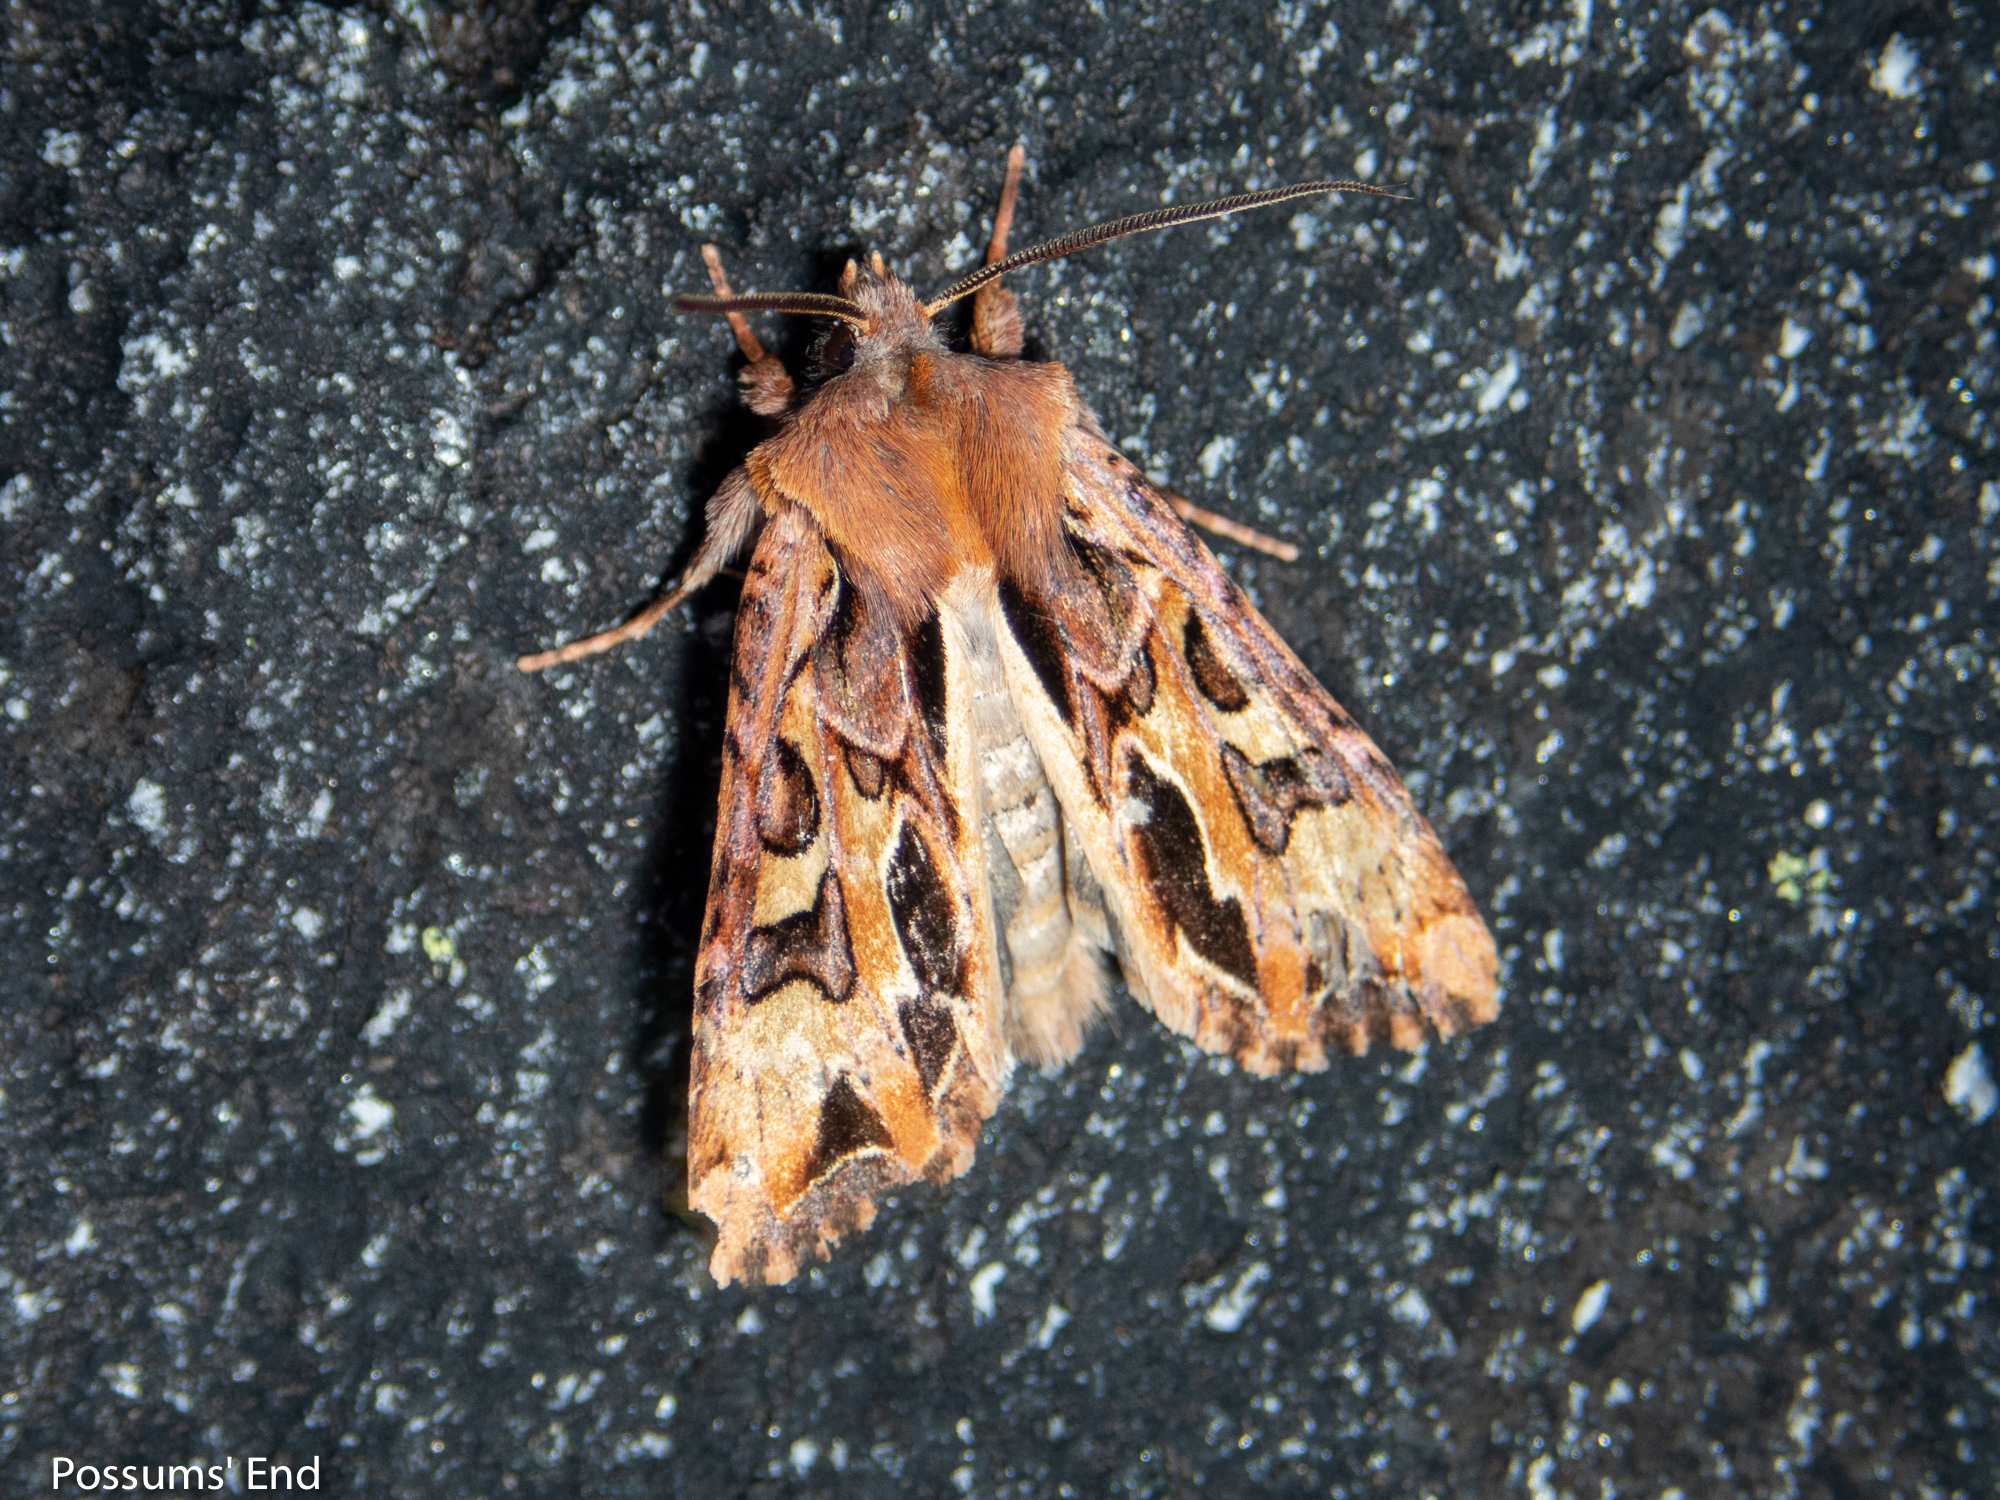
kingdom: Animalia
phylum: Arthropoda
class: Insecta
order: Lepidoptera
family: Noctuidae
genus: Ichneutica
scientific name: Ichneutica
